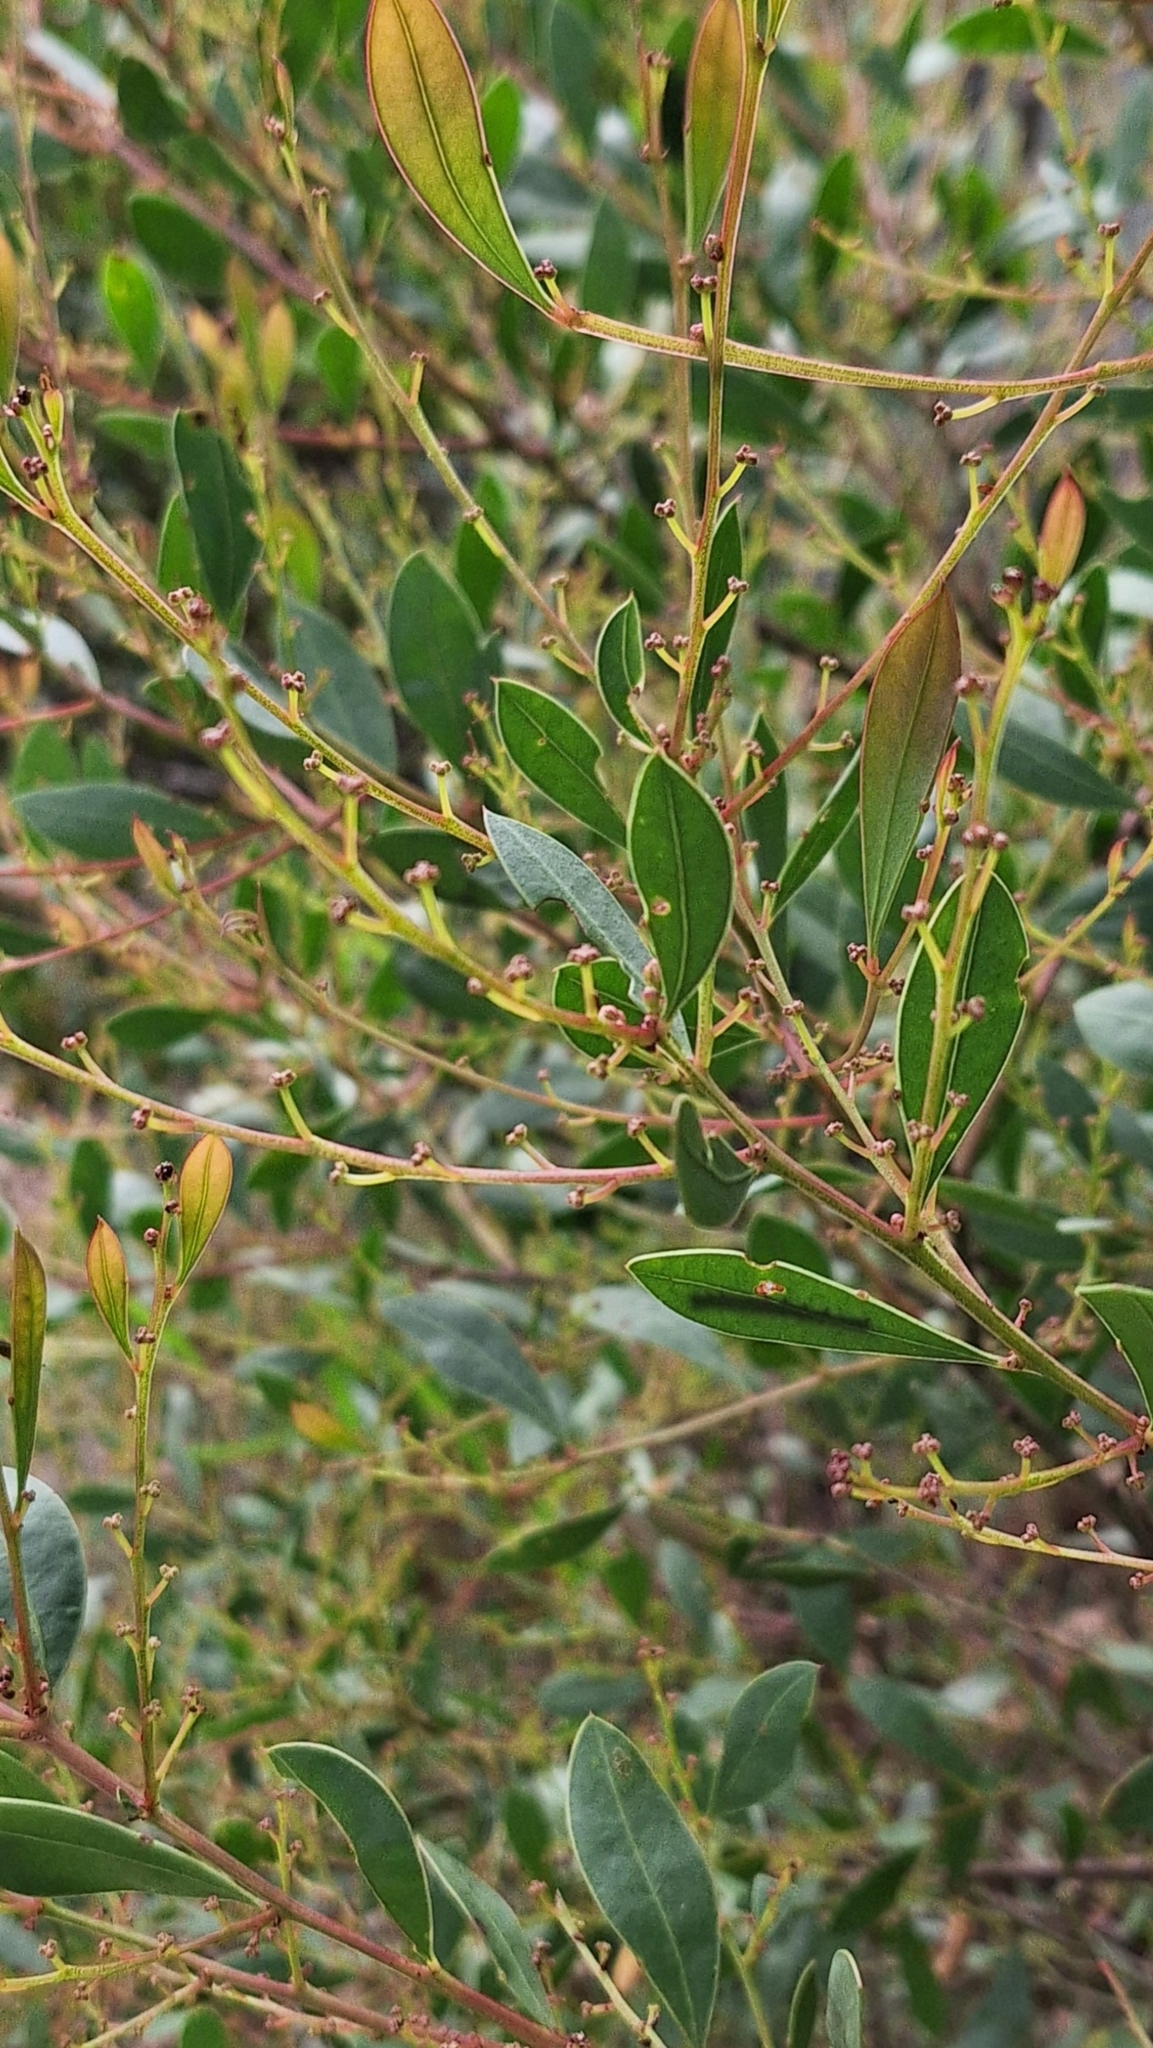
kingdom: Plantae
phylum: Tracheophyta
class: Magnoliopsida
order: Fabales
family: Fabaceae
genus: Acacia
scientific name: Acacia myrtifolia
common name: Myrtle wattle
